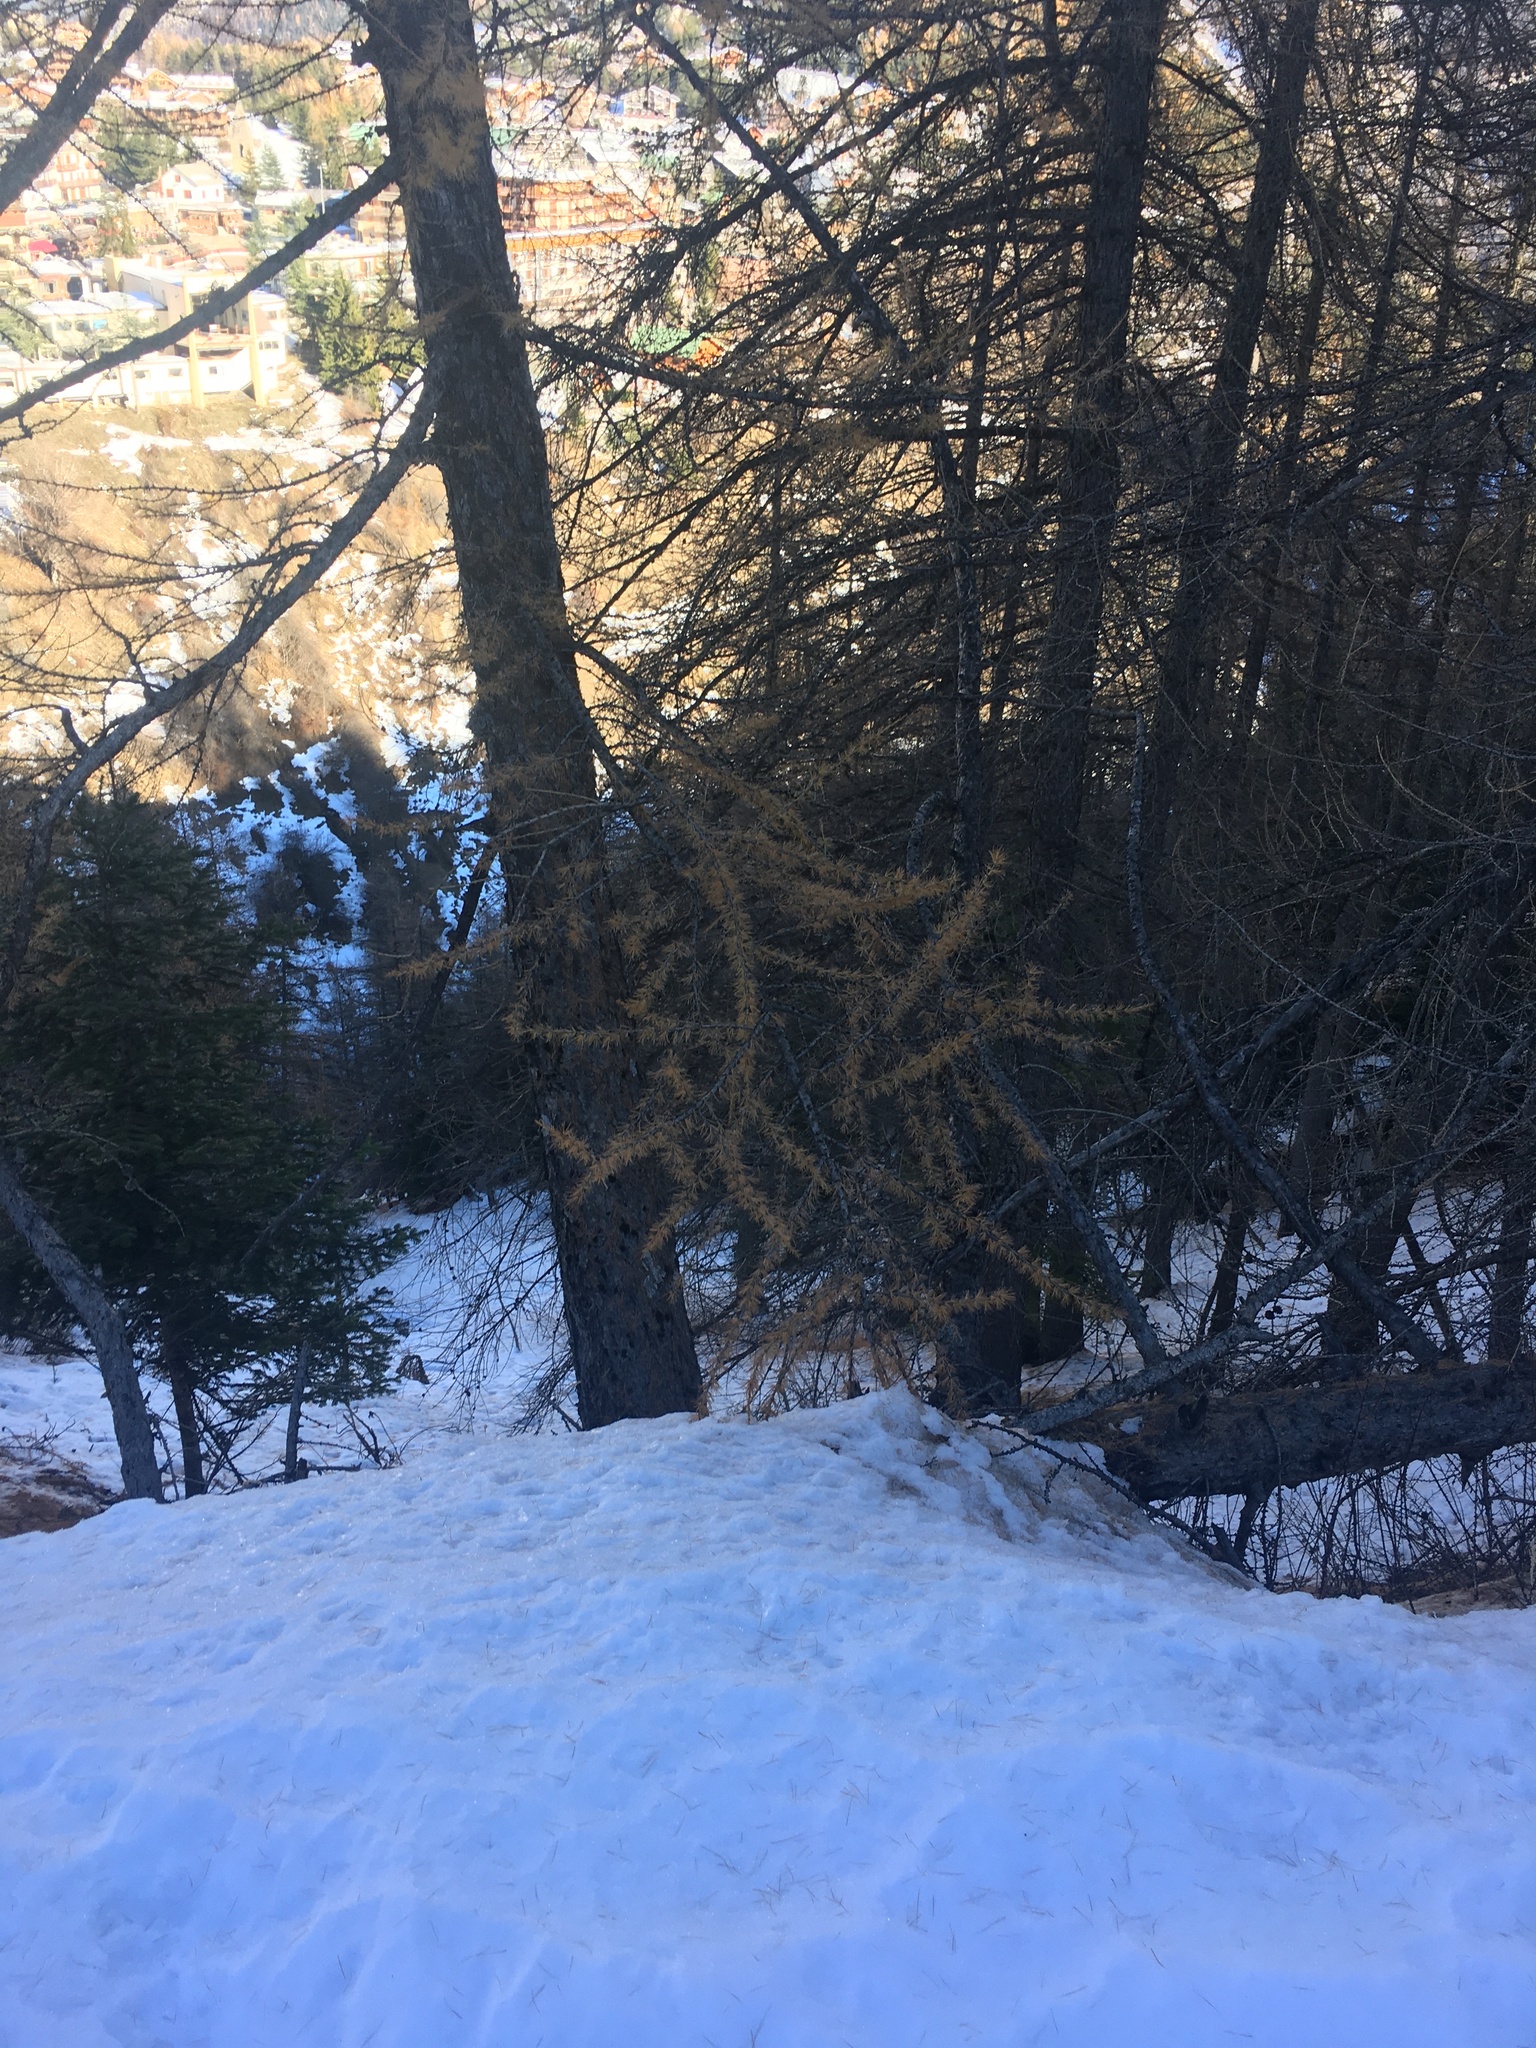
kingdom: Plantae
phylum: Tracheophyta
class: Pinopsida
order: Pinales
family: Pinaceae
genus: Larix
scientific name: Larix decidua
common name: European larch
